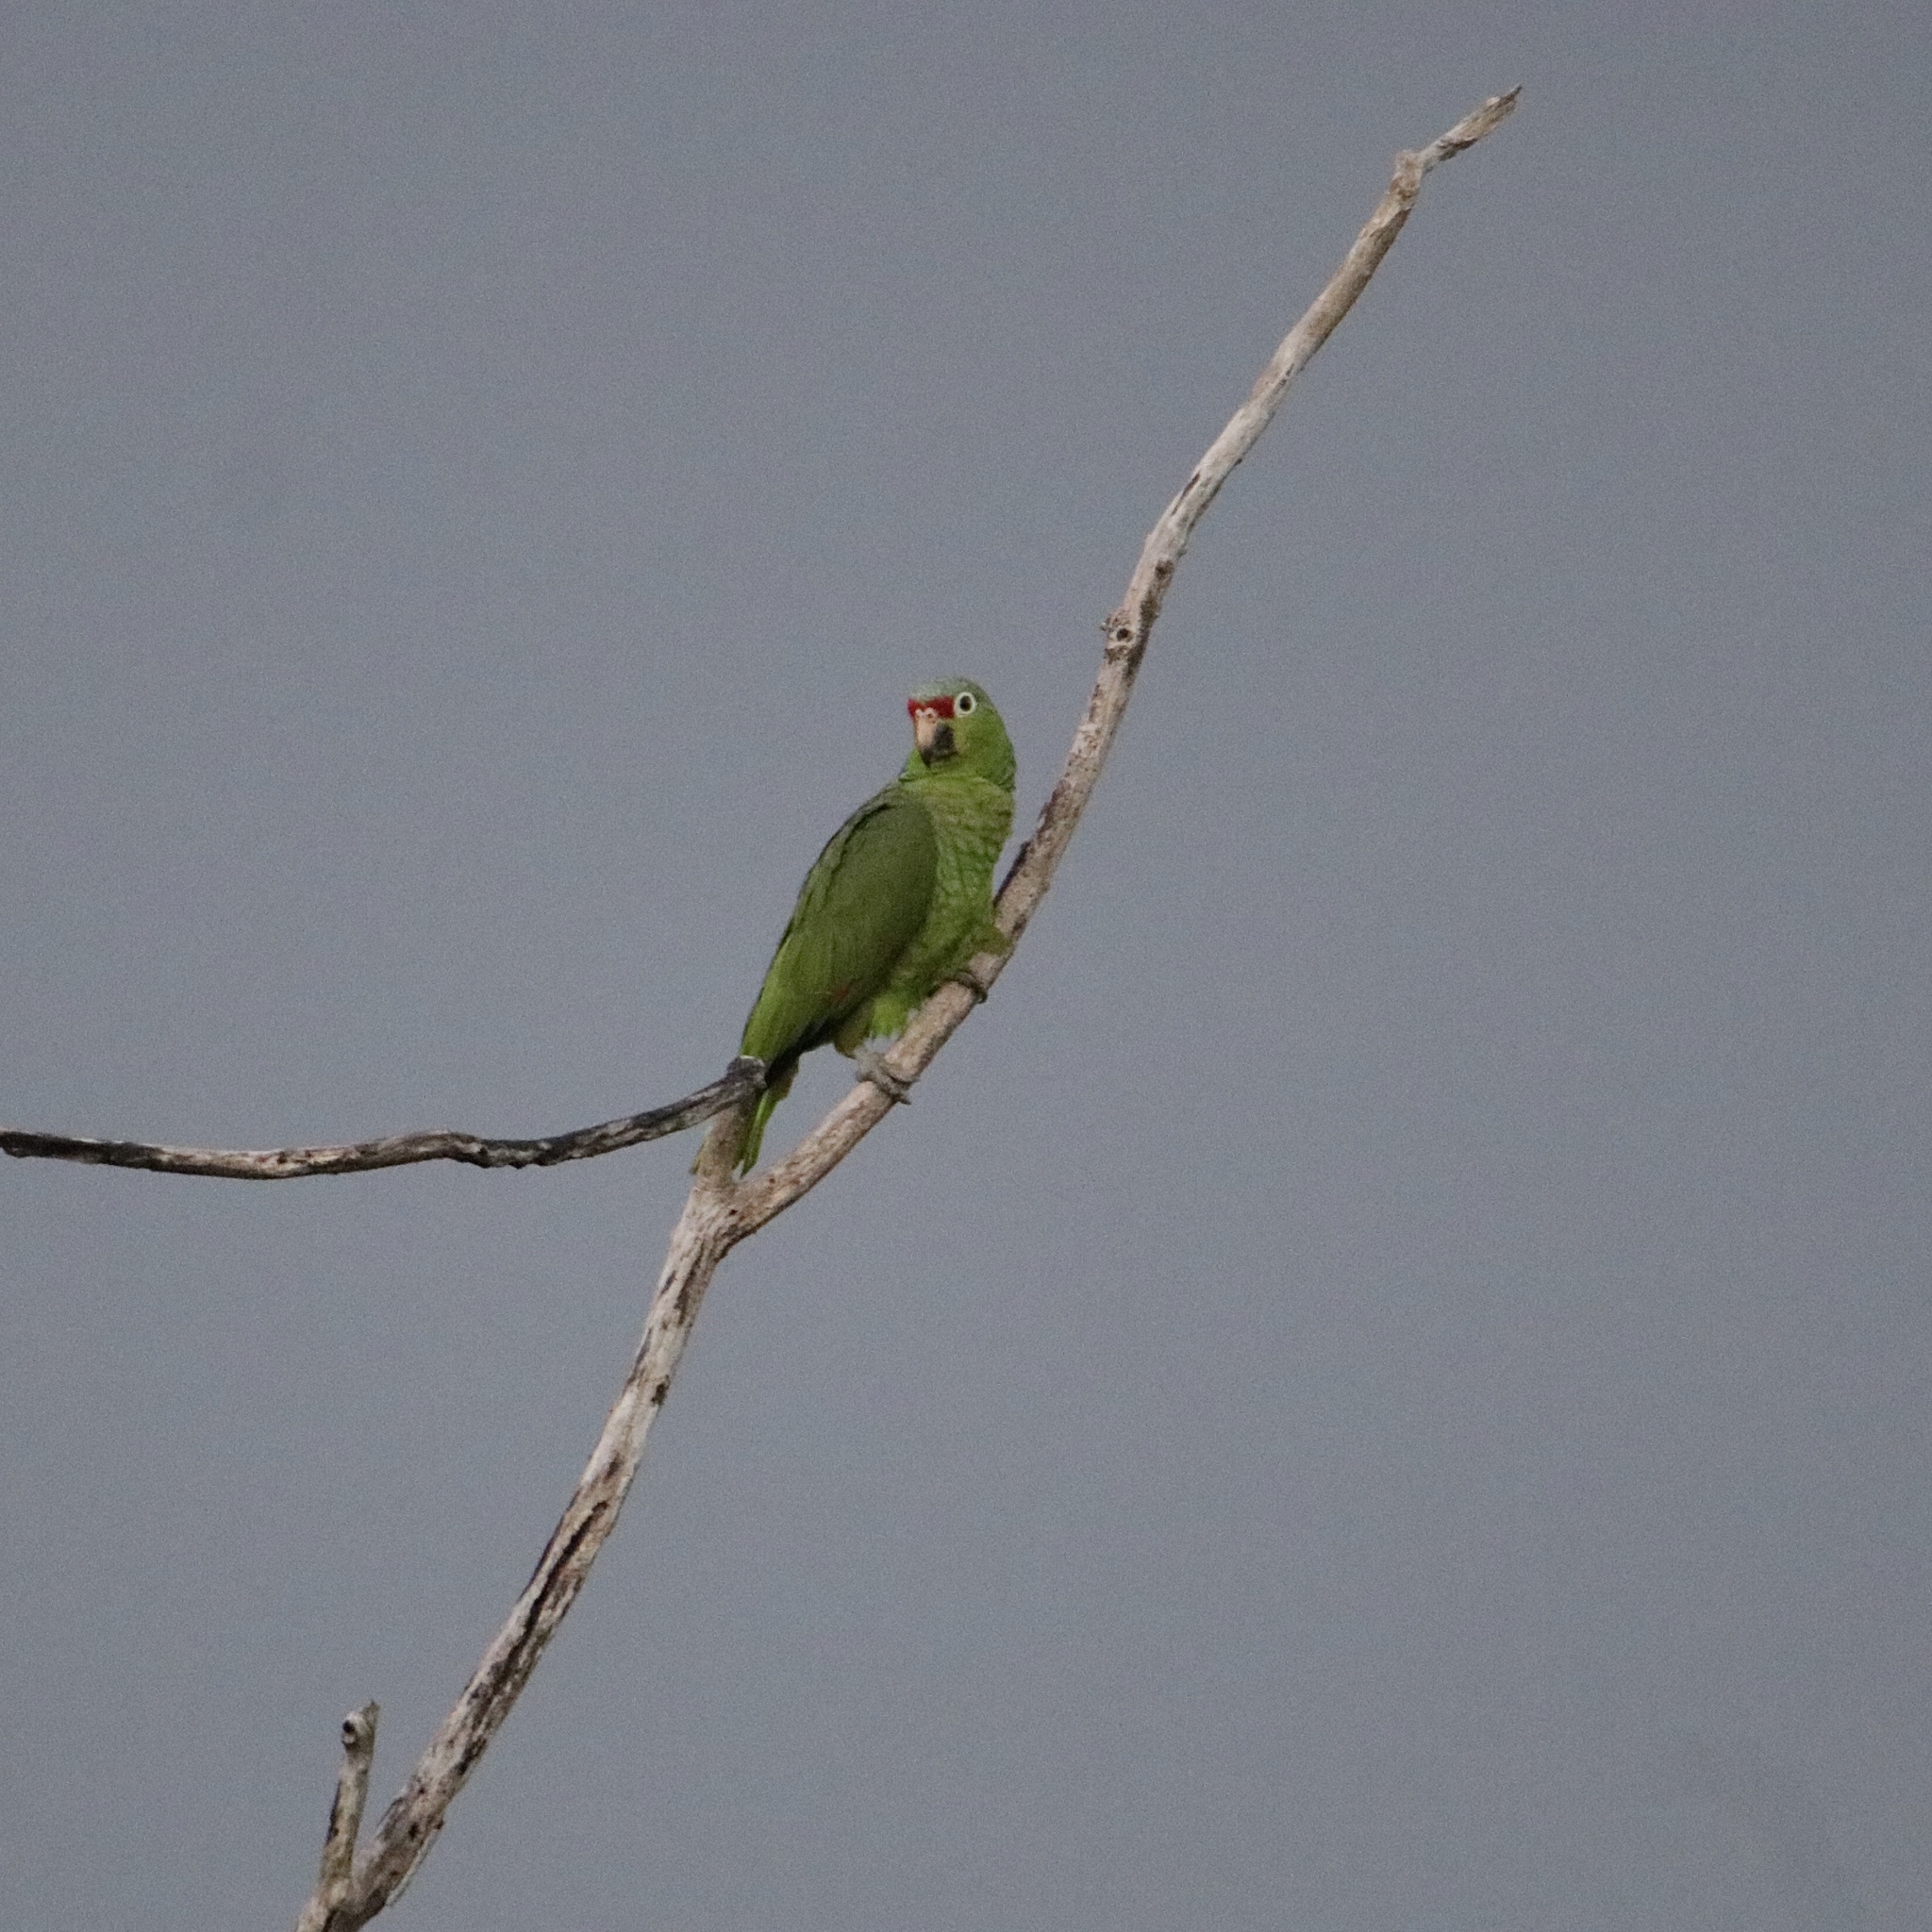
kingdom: Animalia
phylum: Chordata
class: Aves
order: Psittaciformes
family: Psittacidae
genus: Amazona
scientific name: Amazona autumnalis
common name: Red-lored amazon
